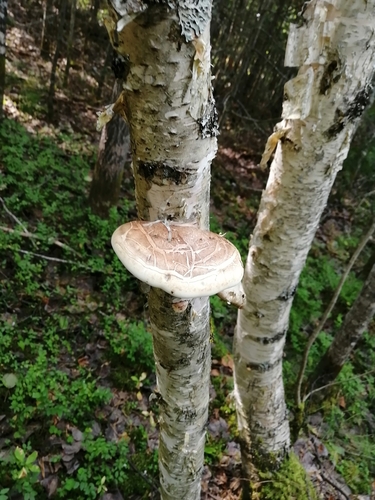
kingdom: Fungi
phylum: Basidiomycota
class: Agaricomycetes
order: Polyporales
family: Fomitopsidaceae
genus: Fomitopsis
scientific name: Fomitopsis betulina
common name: Birch polypore
